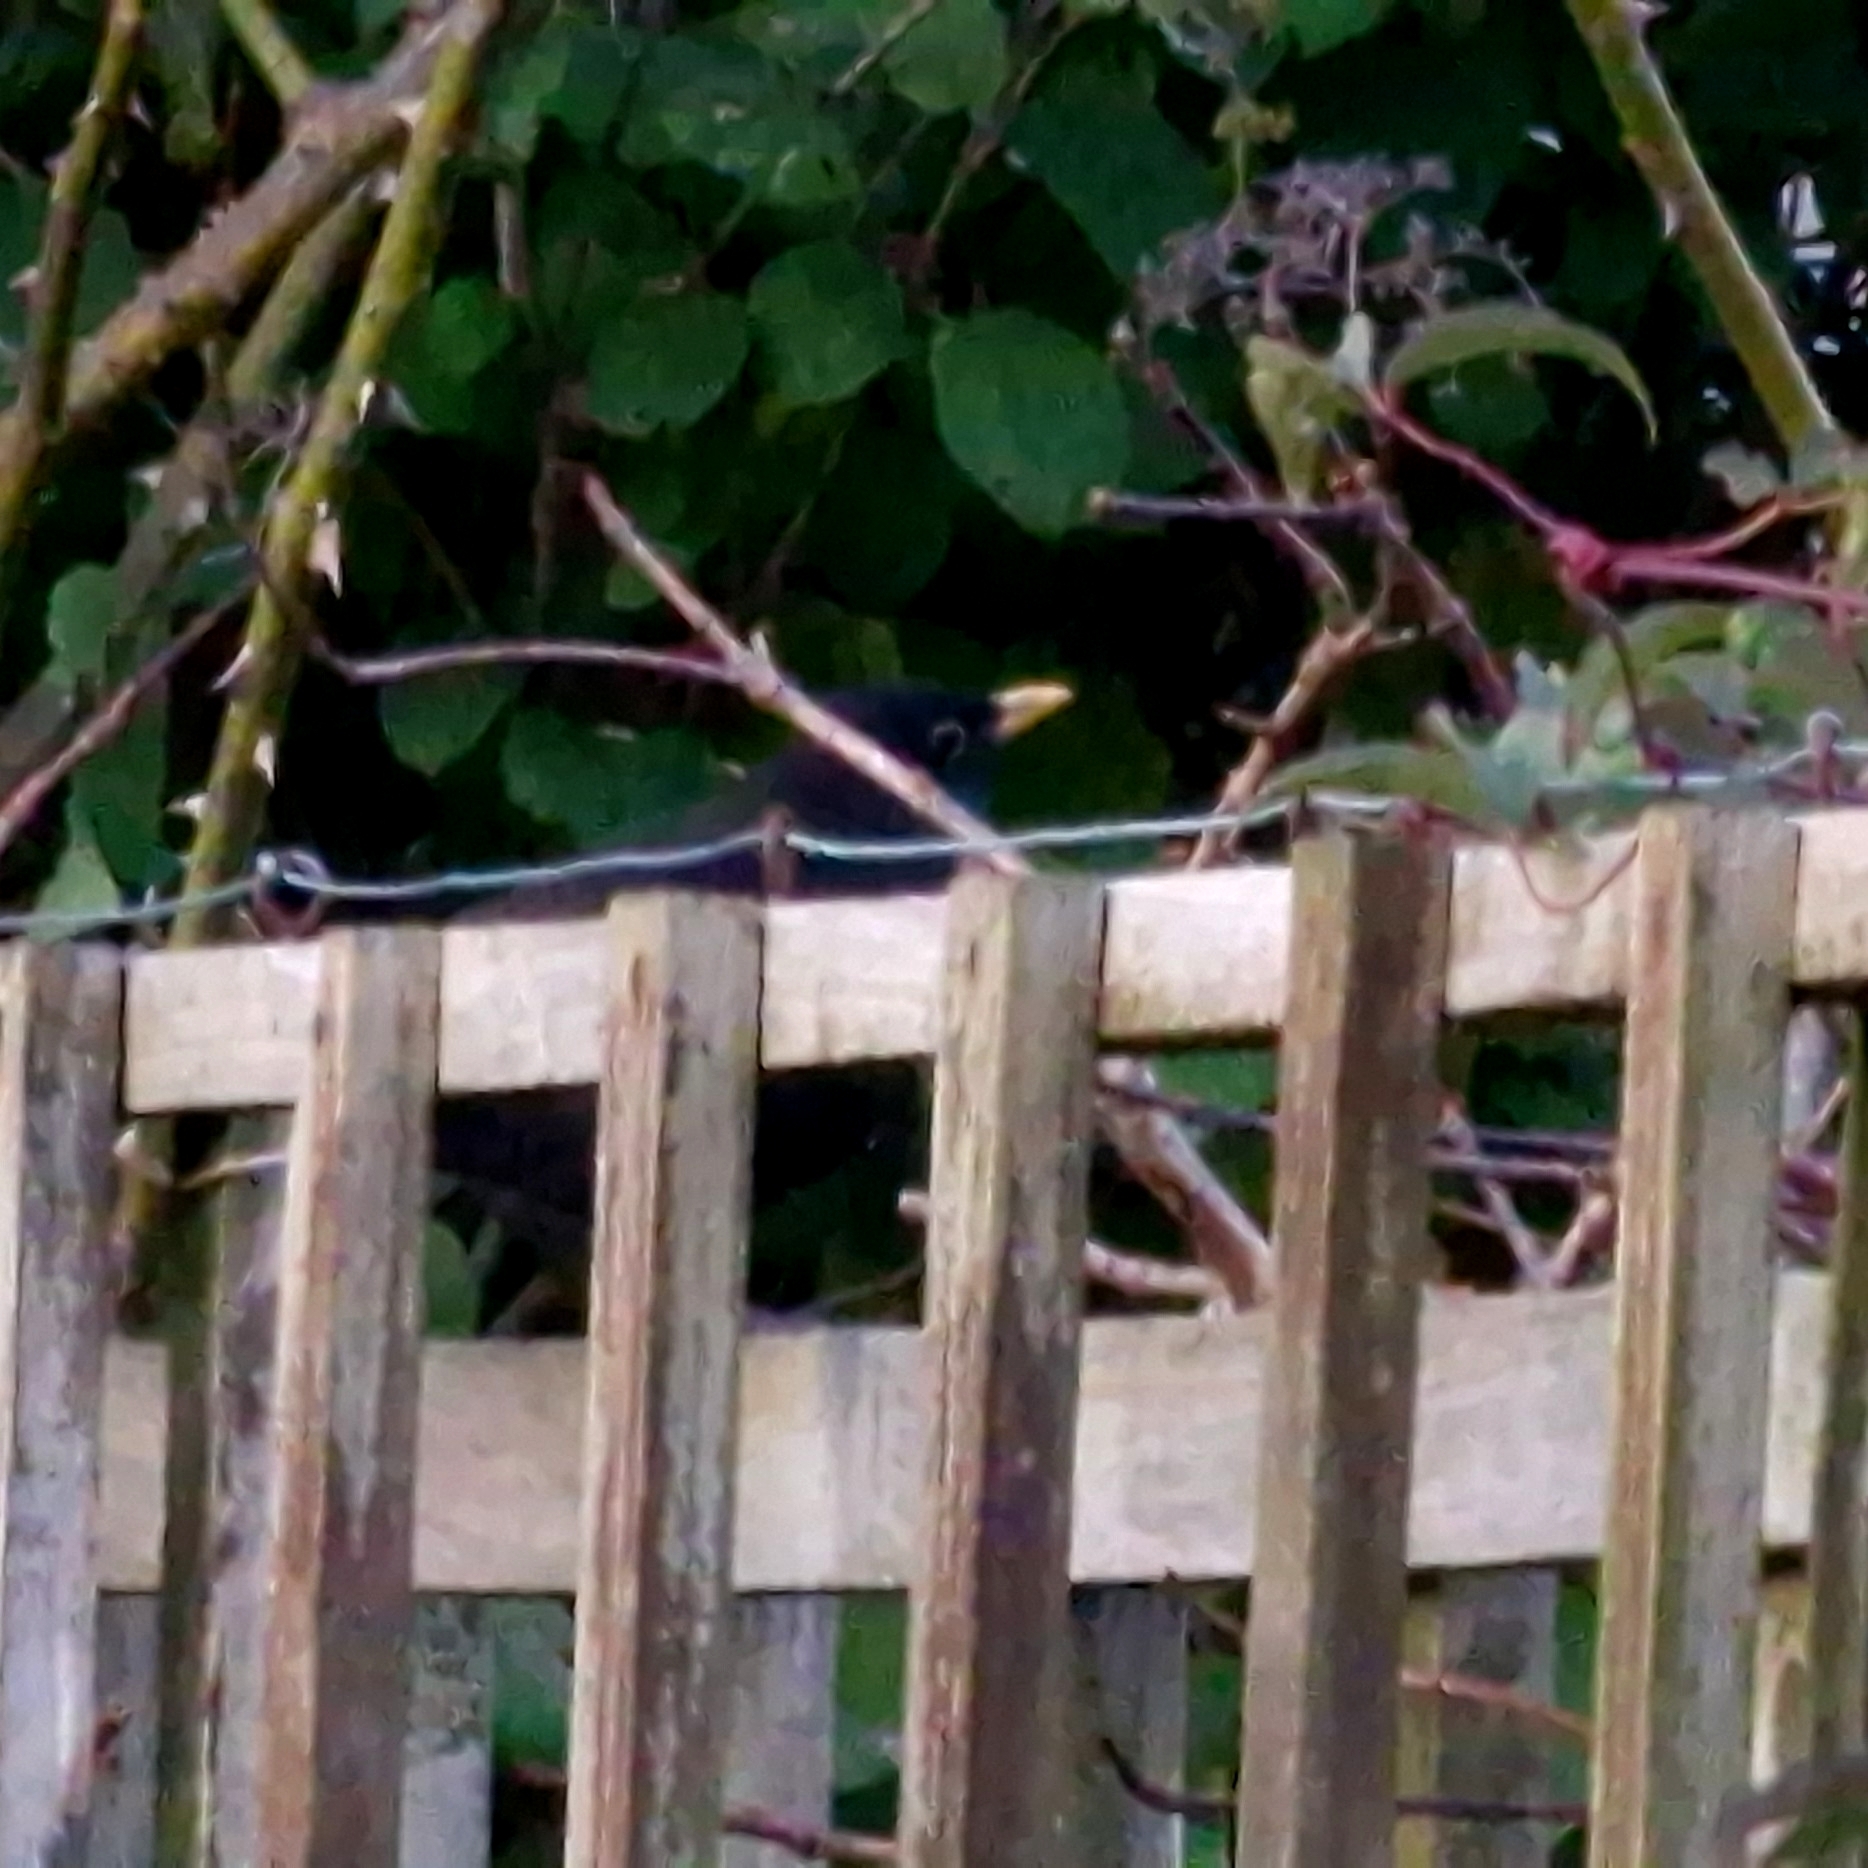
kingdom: Animalia
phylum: Chordata
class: Aves
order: Passeriformes
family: Turdidae
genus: Turdus
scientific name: Turdus merula
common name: Common blackbird
